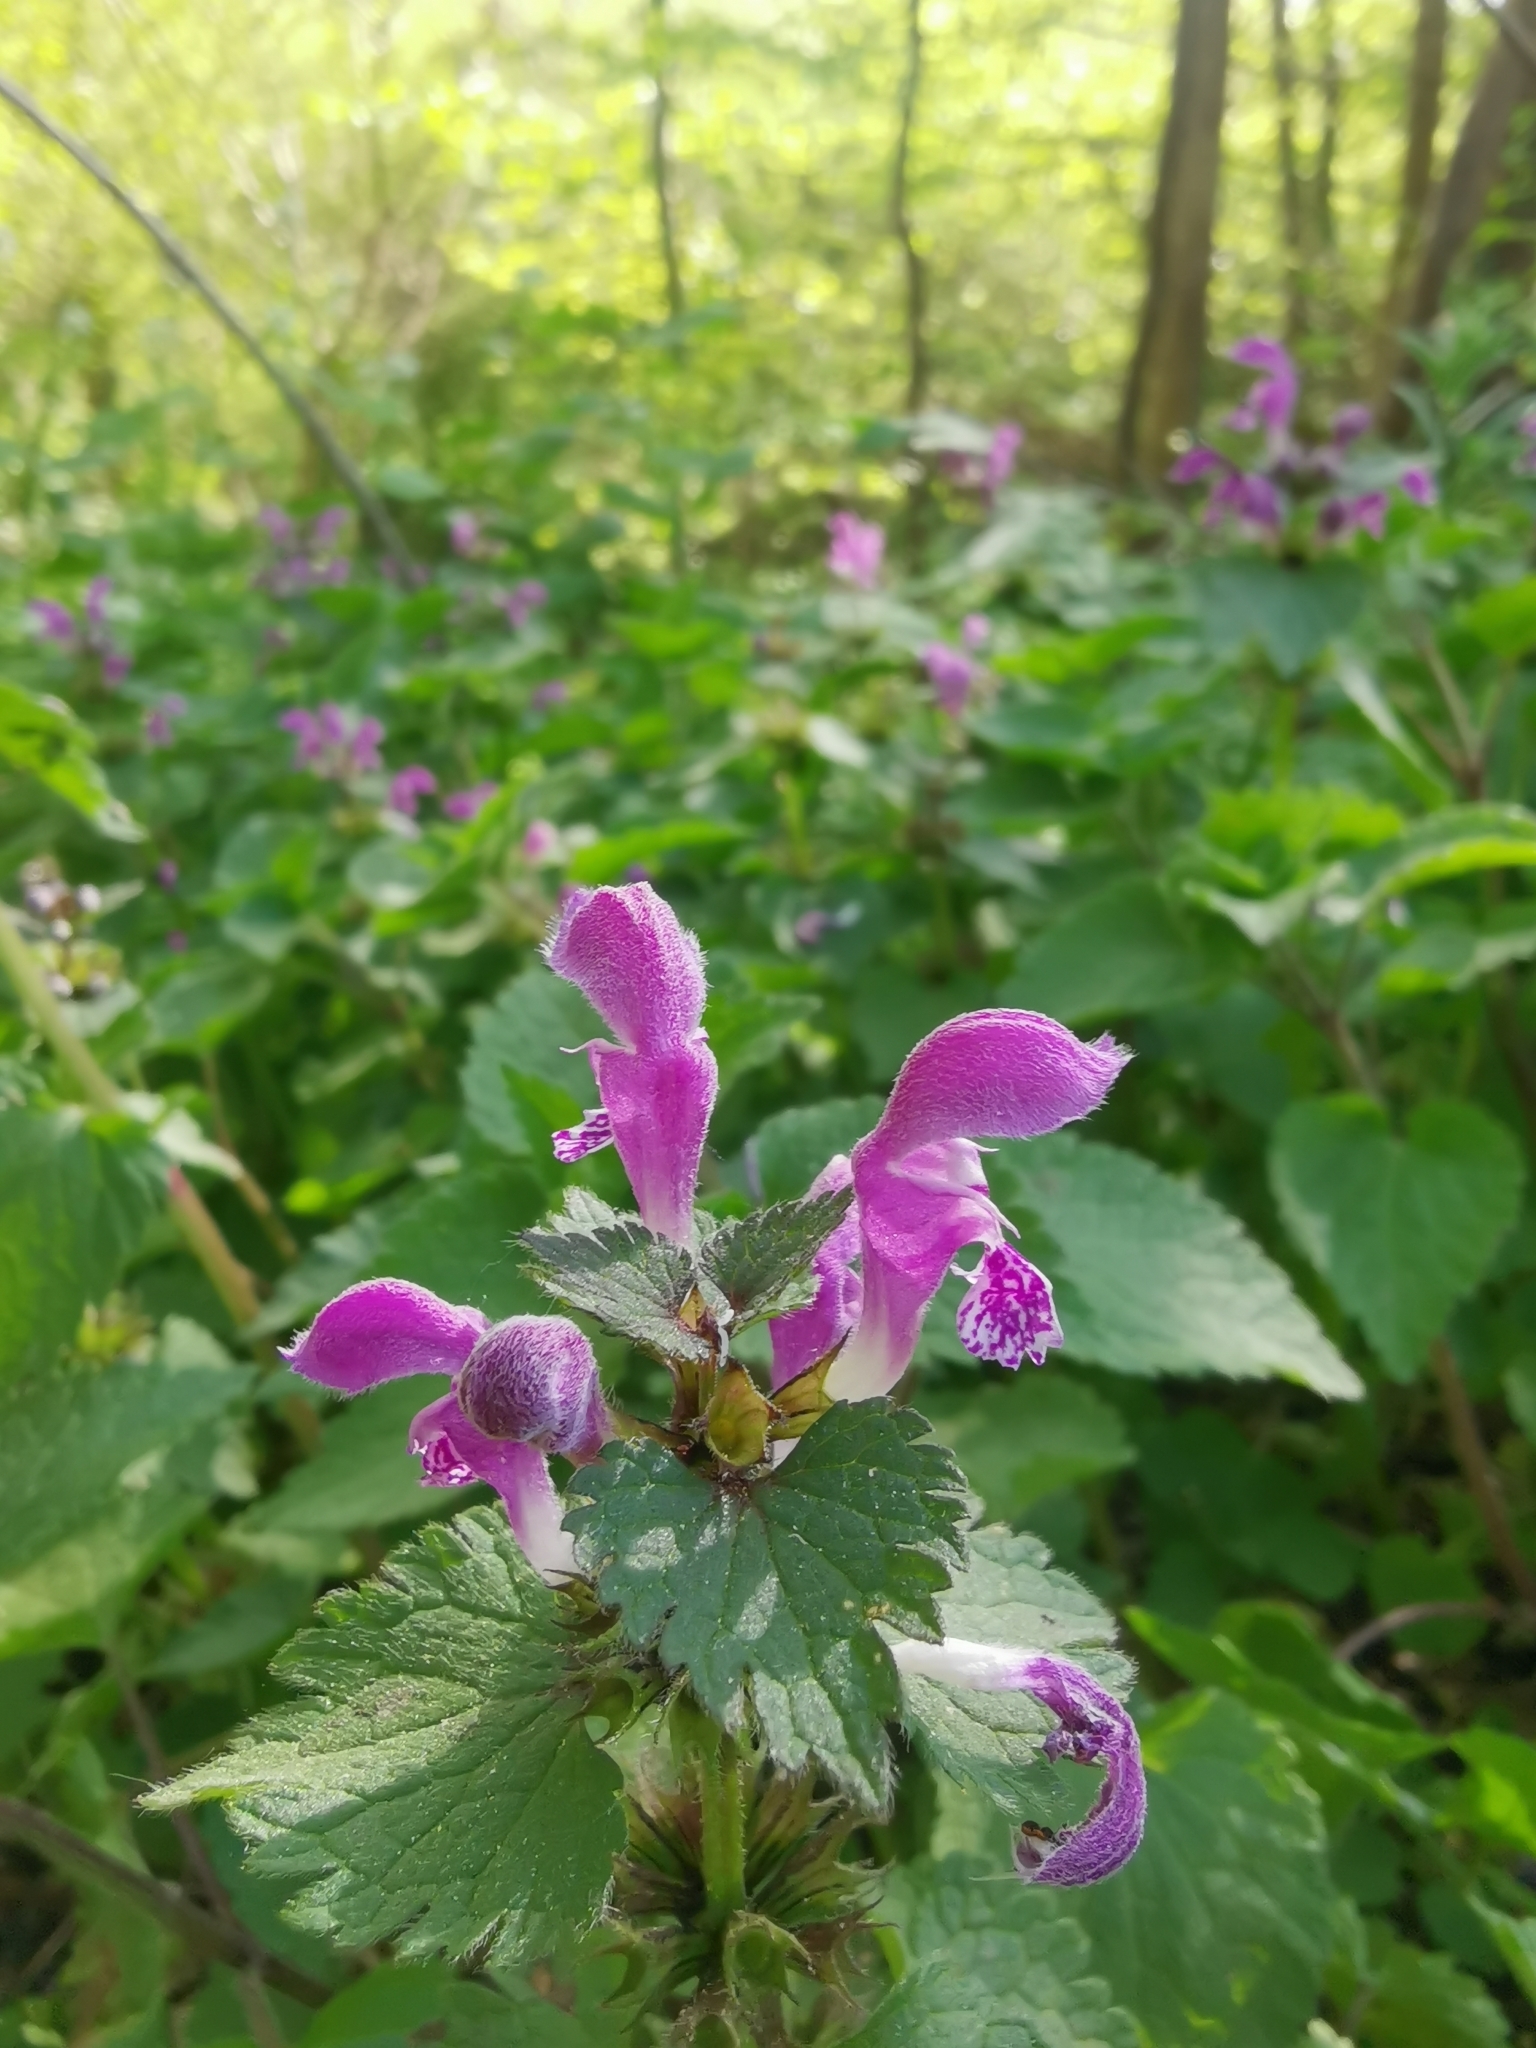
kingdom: Plantae
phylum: Tracheophyta
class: Magnoliopsida
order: Lamiales
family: Lamiaceae
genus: Lamium
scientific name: Lamium maculatum
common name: Spotted dead-nettle
